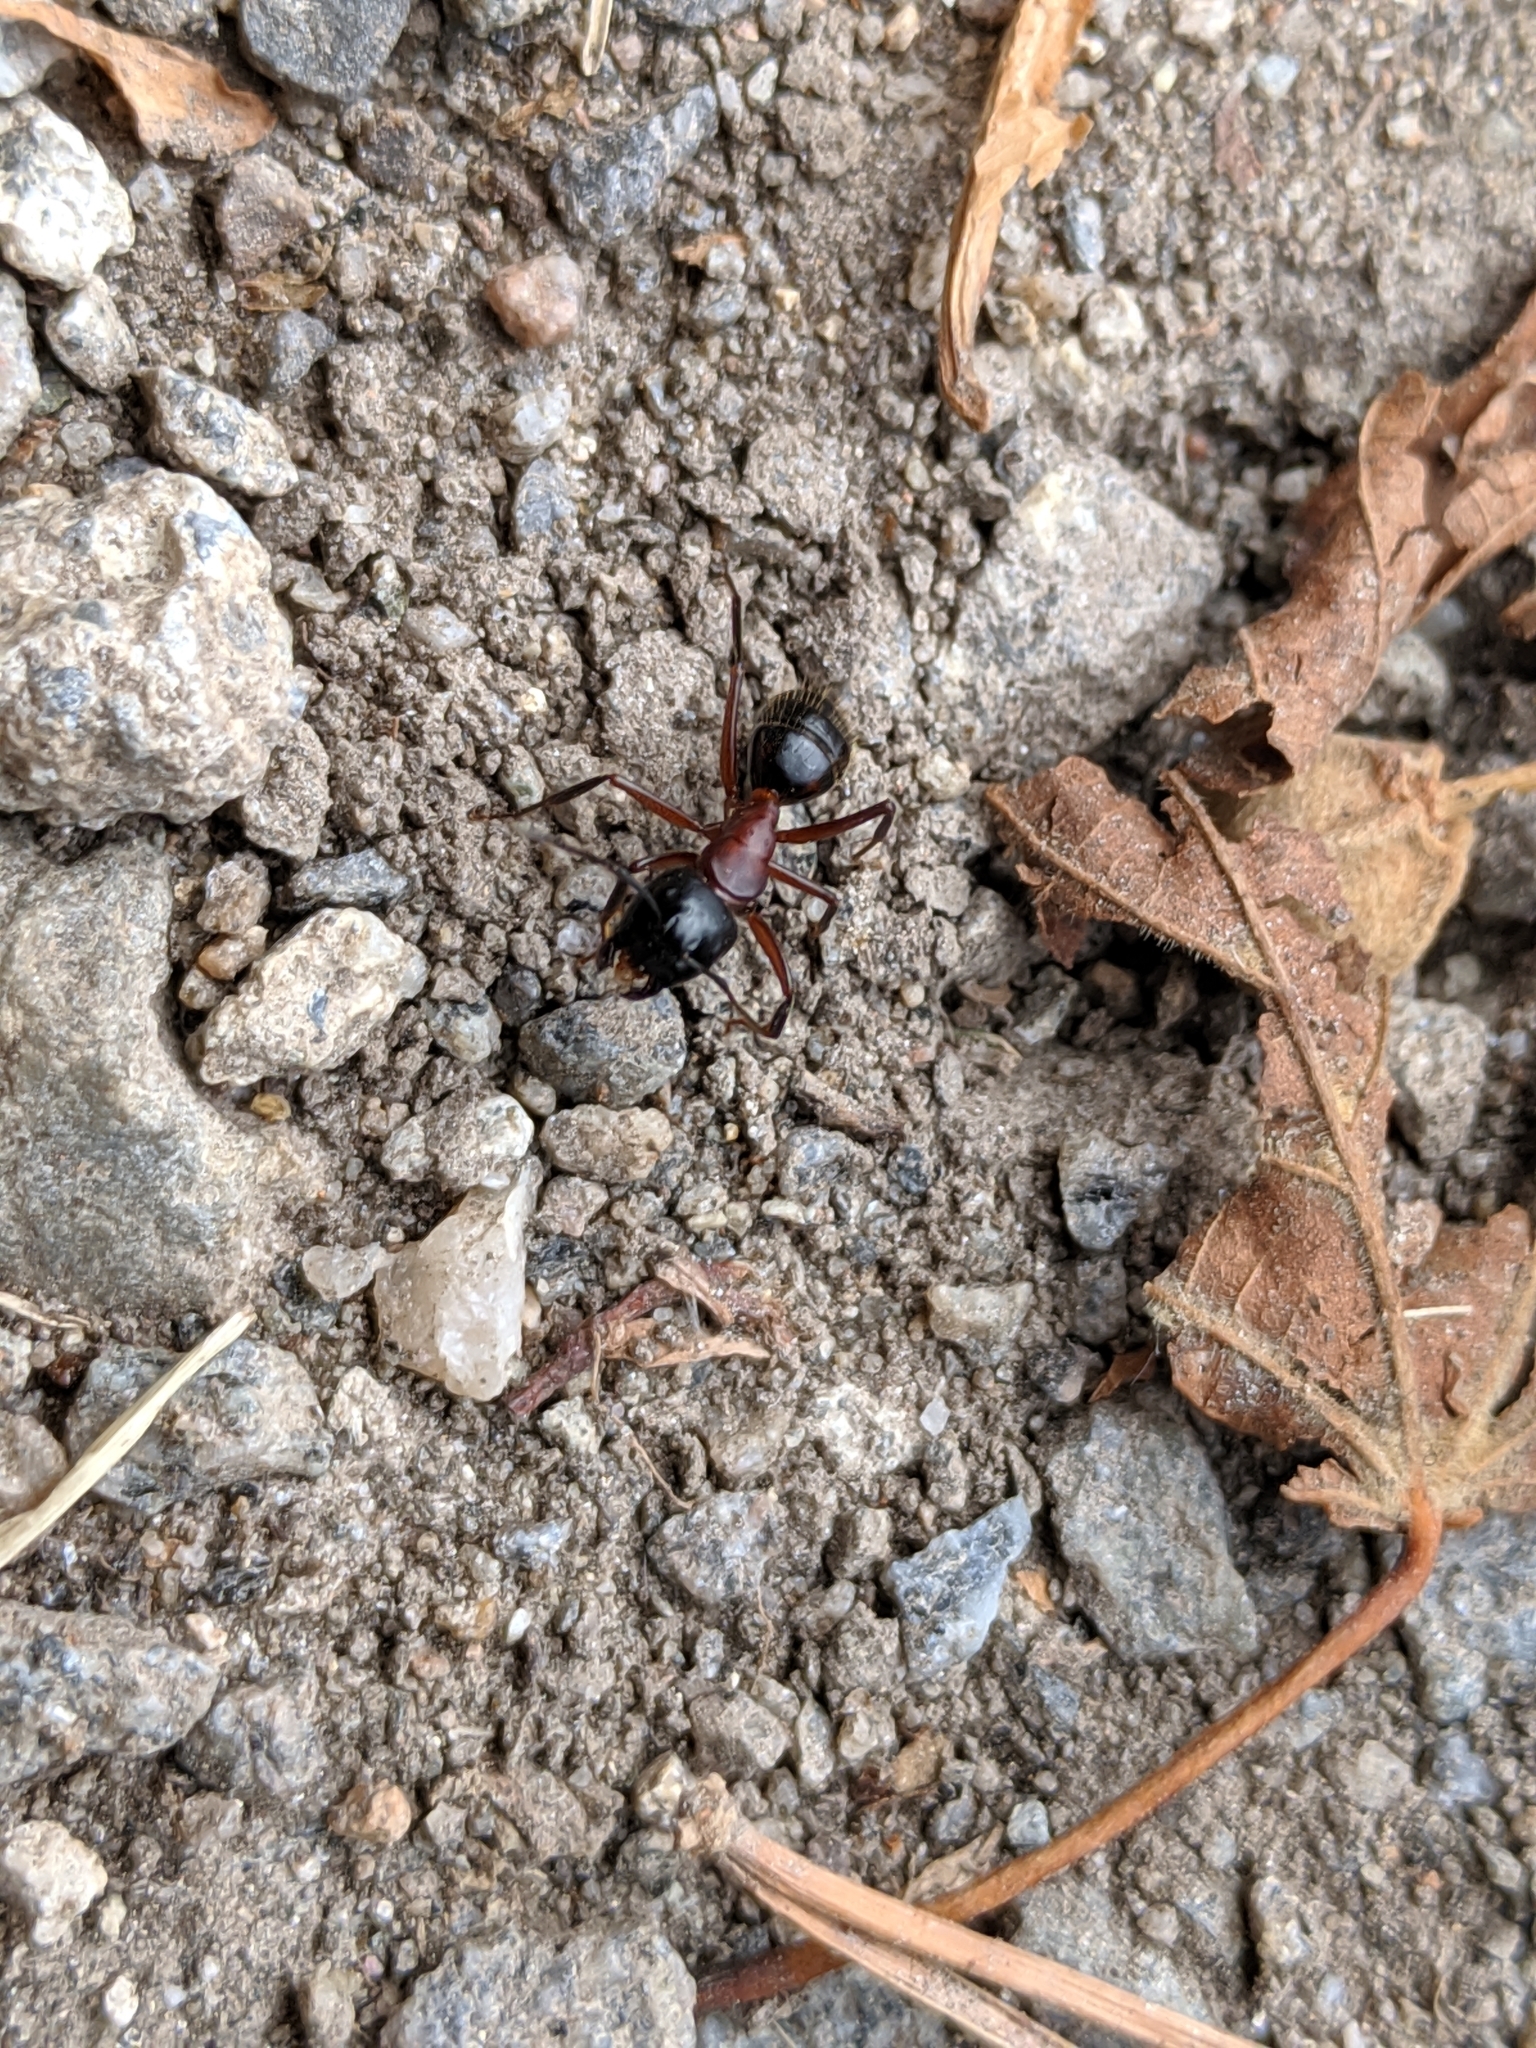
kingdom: Animalia
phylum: Arthropoda
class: Insecta
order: Hymenoptera
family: Formicidae
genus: Camponotus
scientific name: Camponotus herculeanus
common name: Hercules ant
